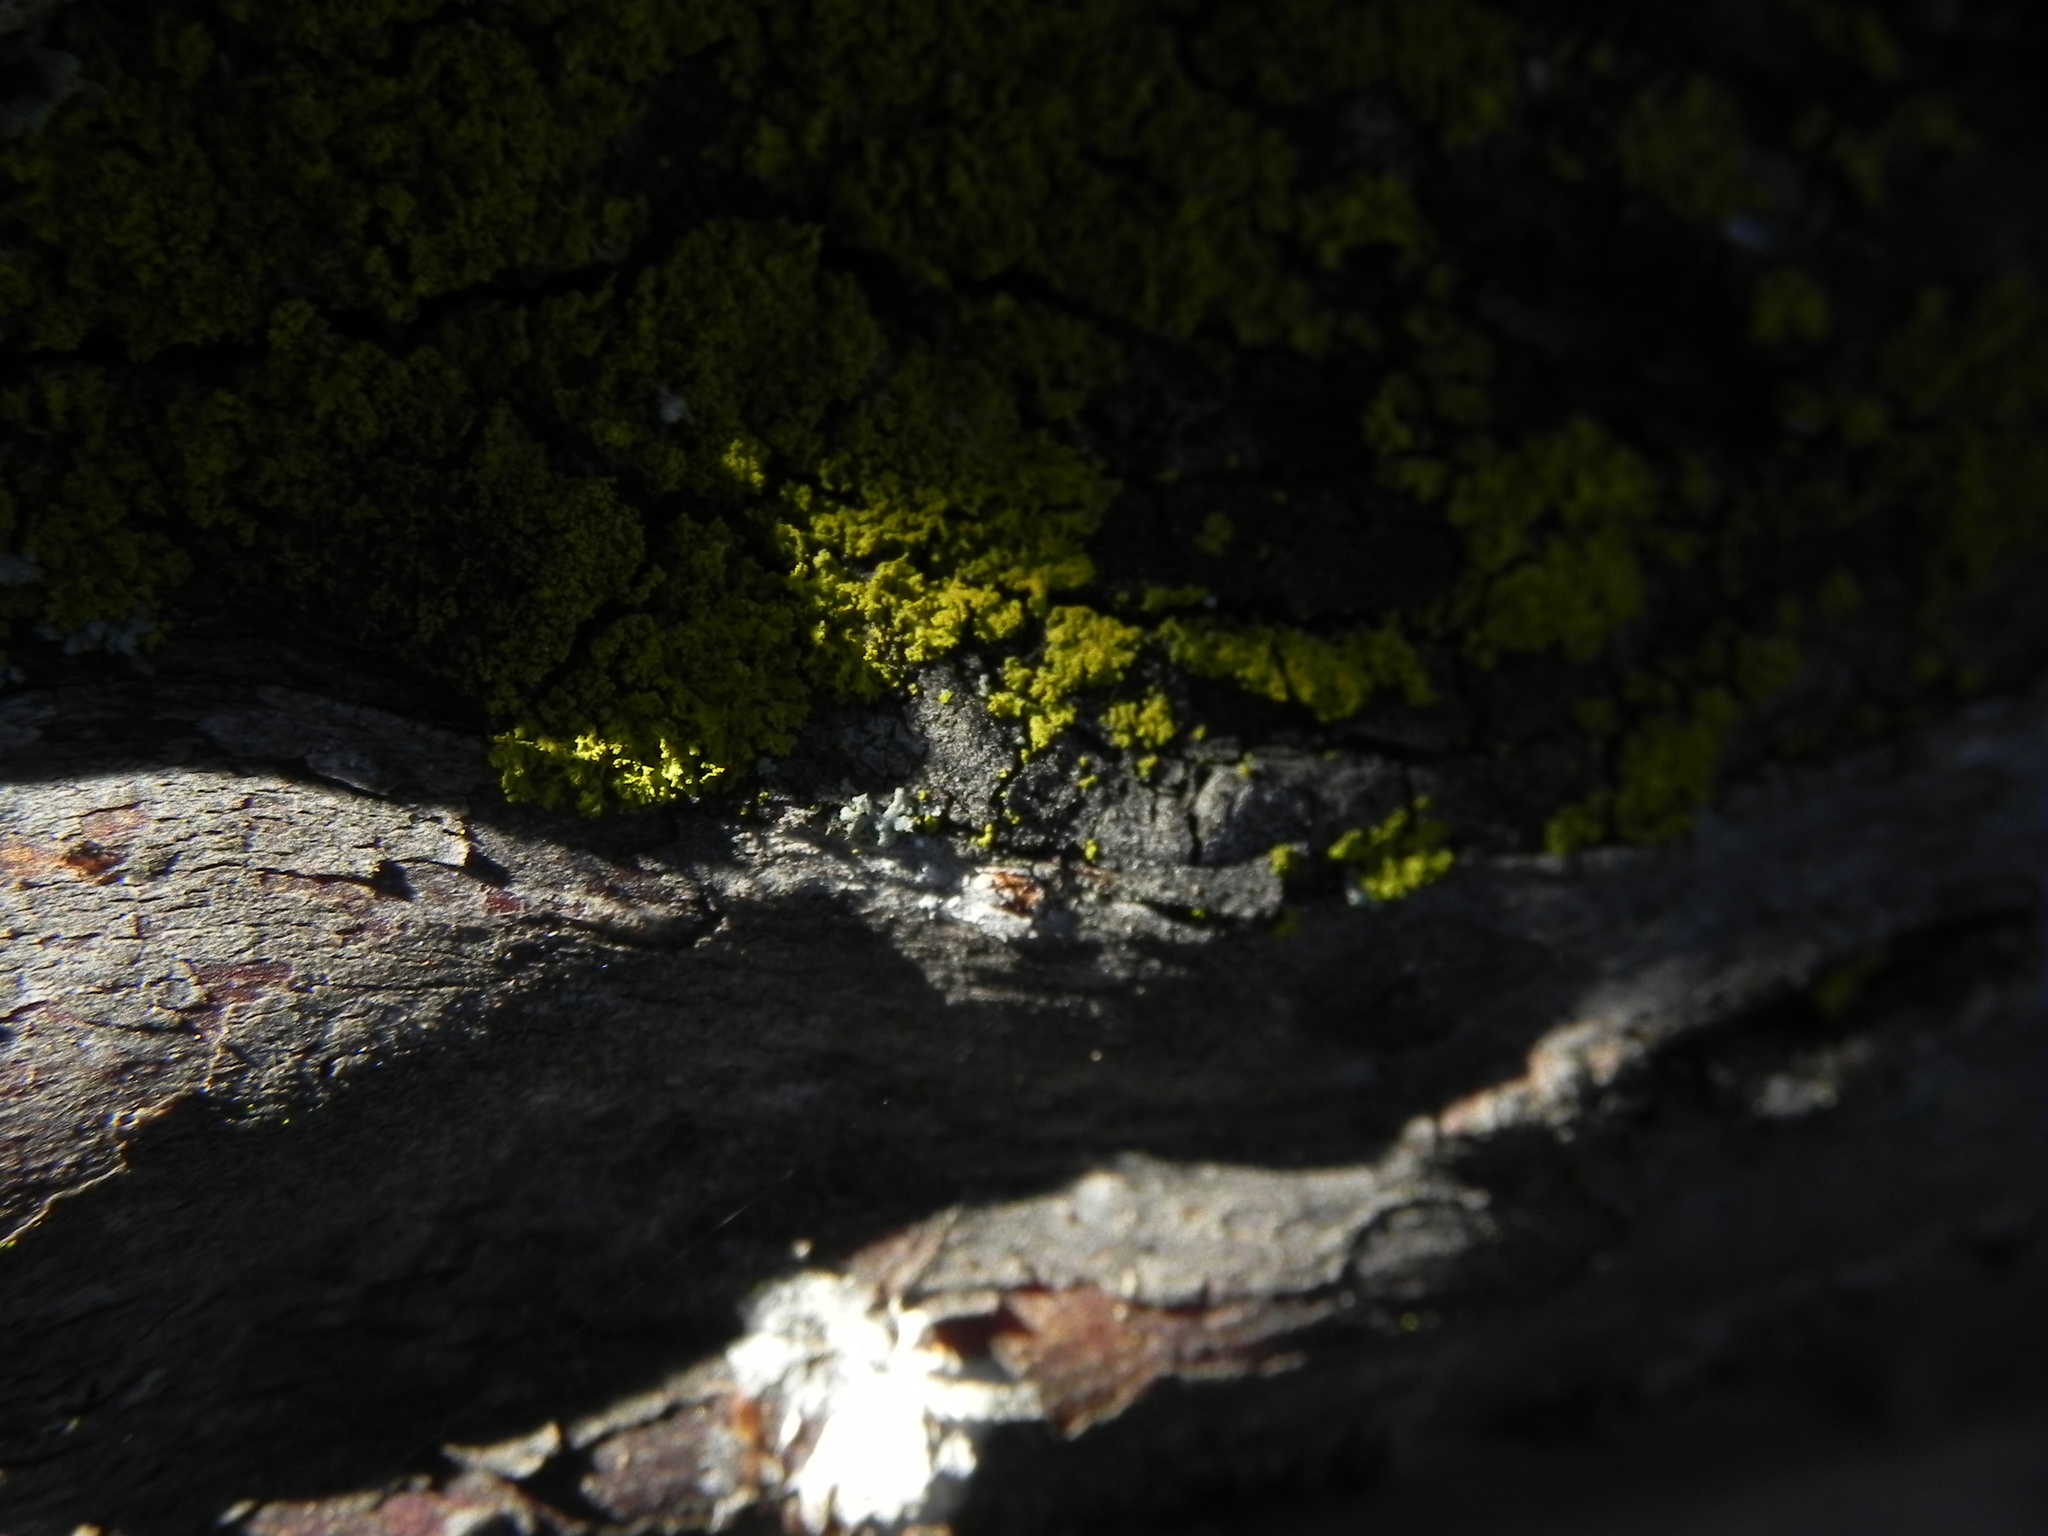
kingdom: Fungi
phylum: Ascomycota
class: Candelariomycetes
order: Candelariales
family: Candelariaceae
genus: Candelaria
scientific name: Candelaria pacifica
